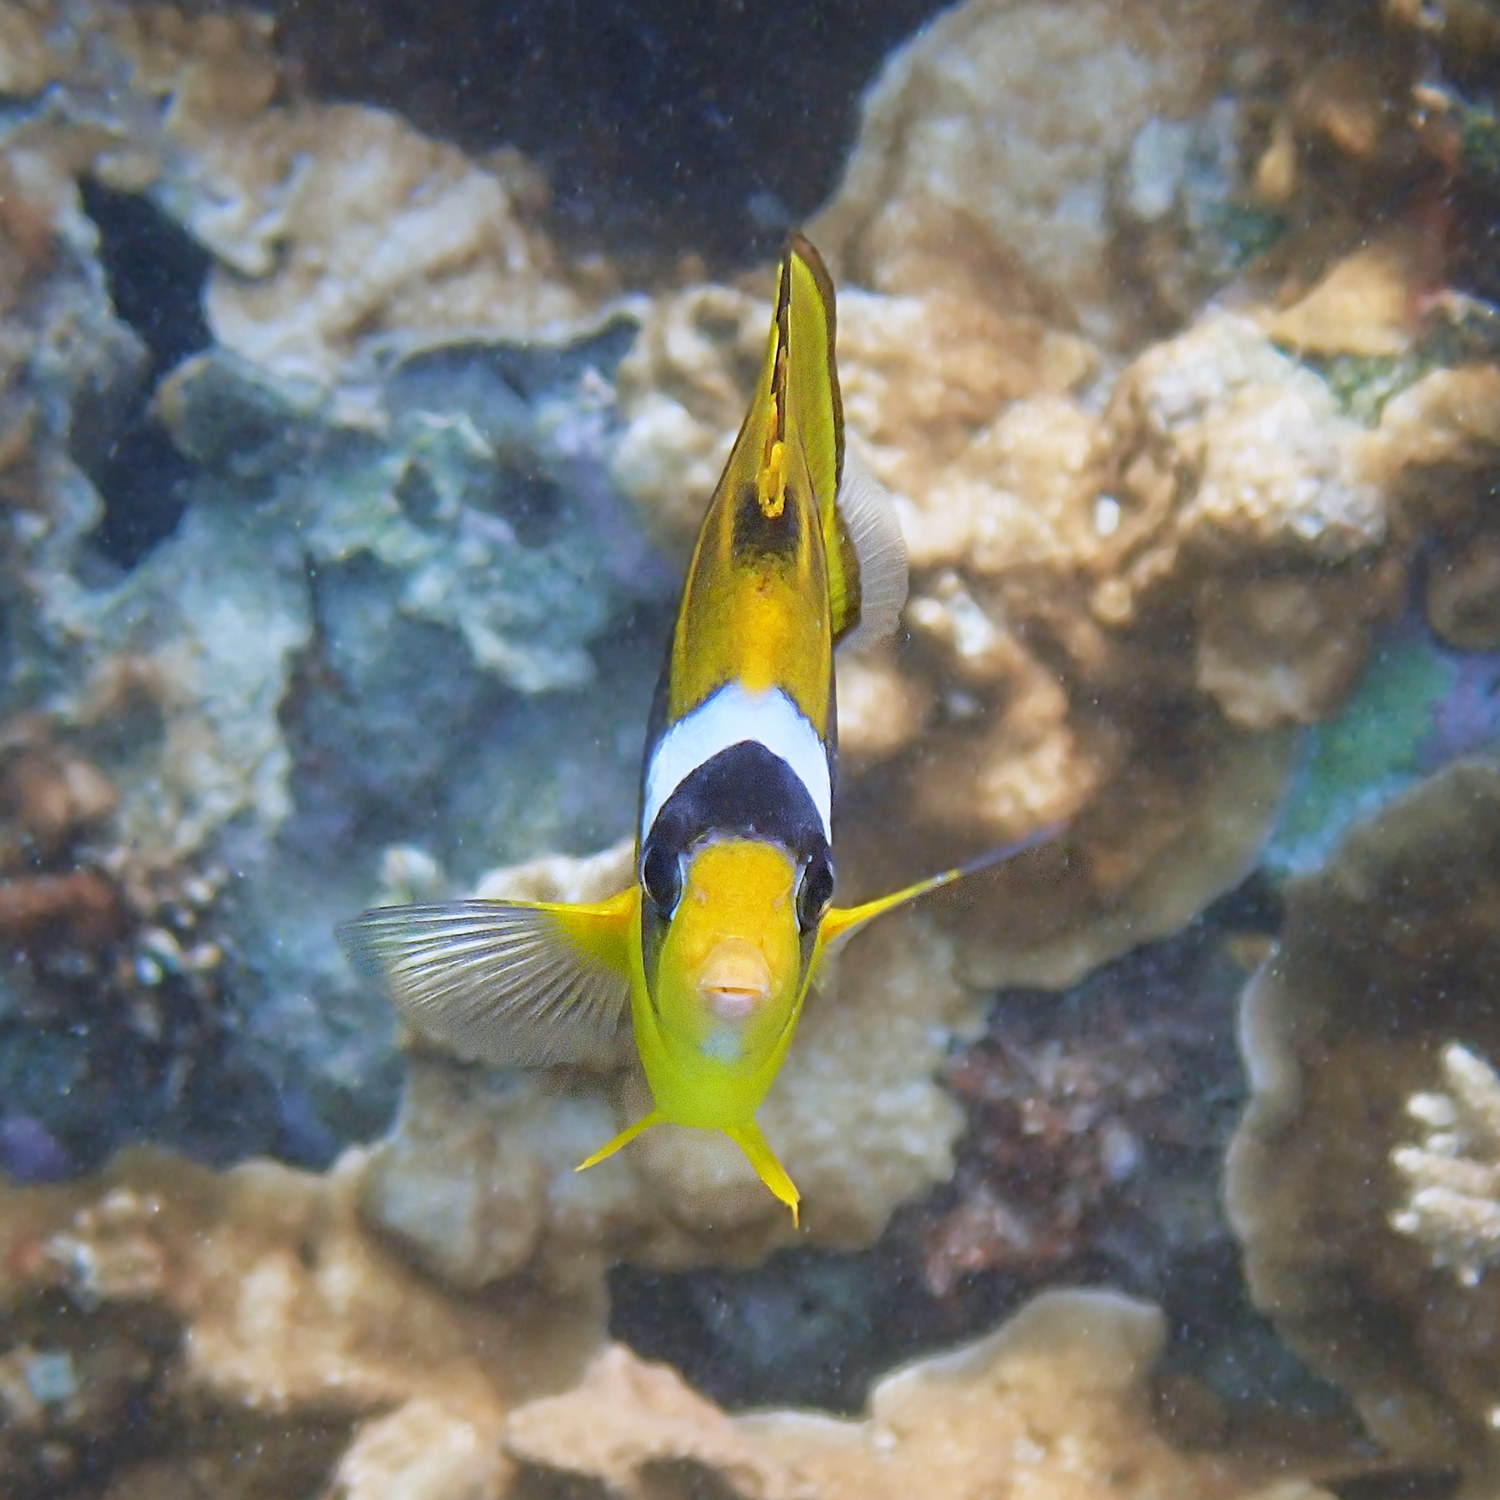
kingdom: Animalia
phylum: Chordata
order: Perciformes
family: Chaetodontidae
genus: Chaetodon
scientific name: Chaetodon lunula
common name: Raccoon butterflyfish
